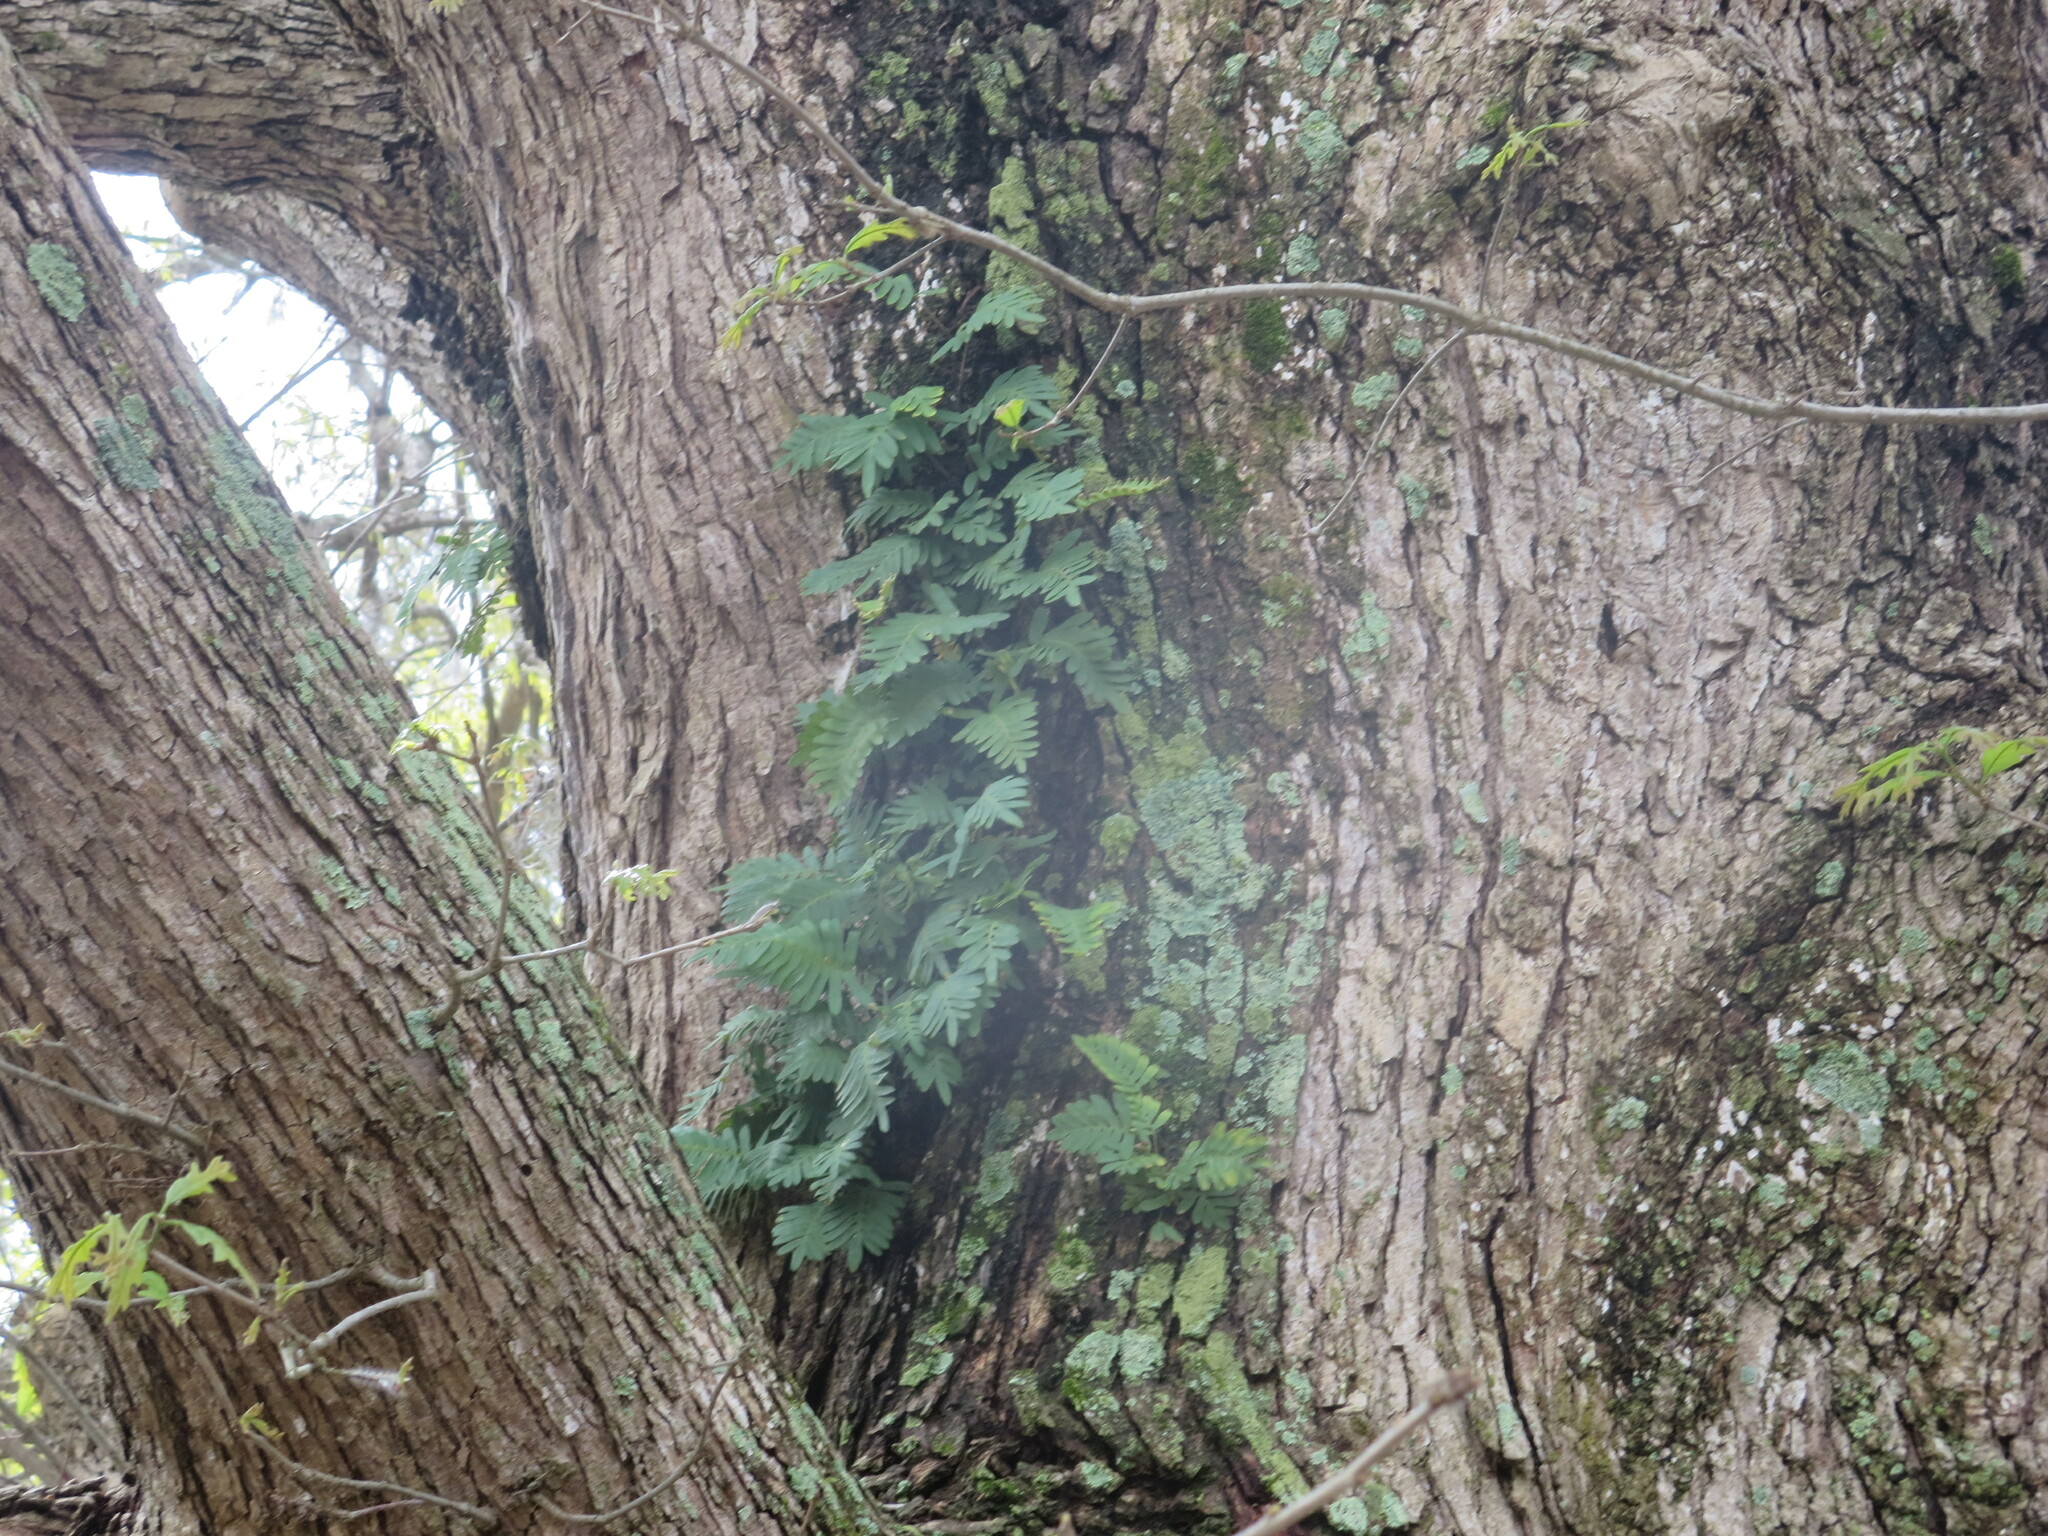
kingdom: Plantae
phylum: Tracheophyta
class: Polypodiopsida
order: Polypodiales
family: Polypodiaceae
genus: Pleopeltis
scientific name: Pleopeltis michauxiana
